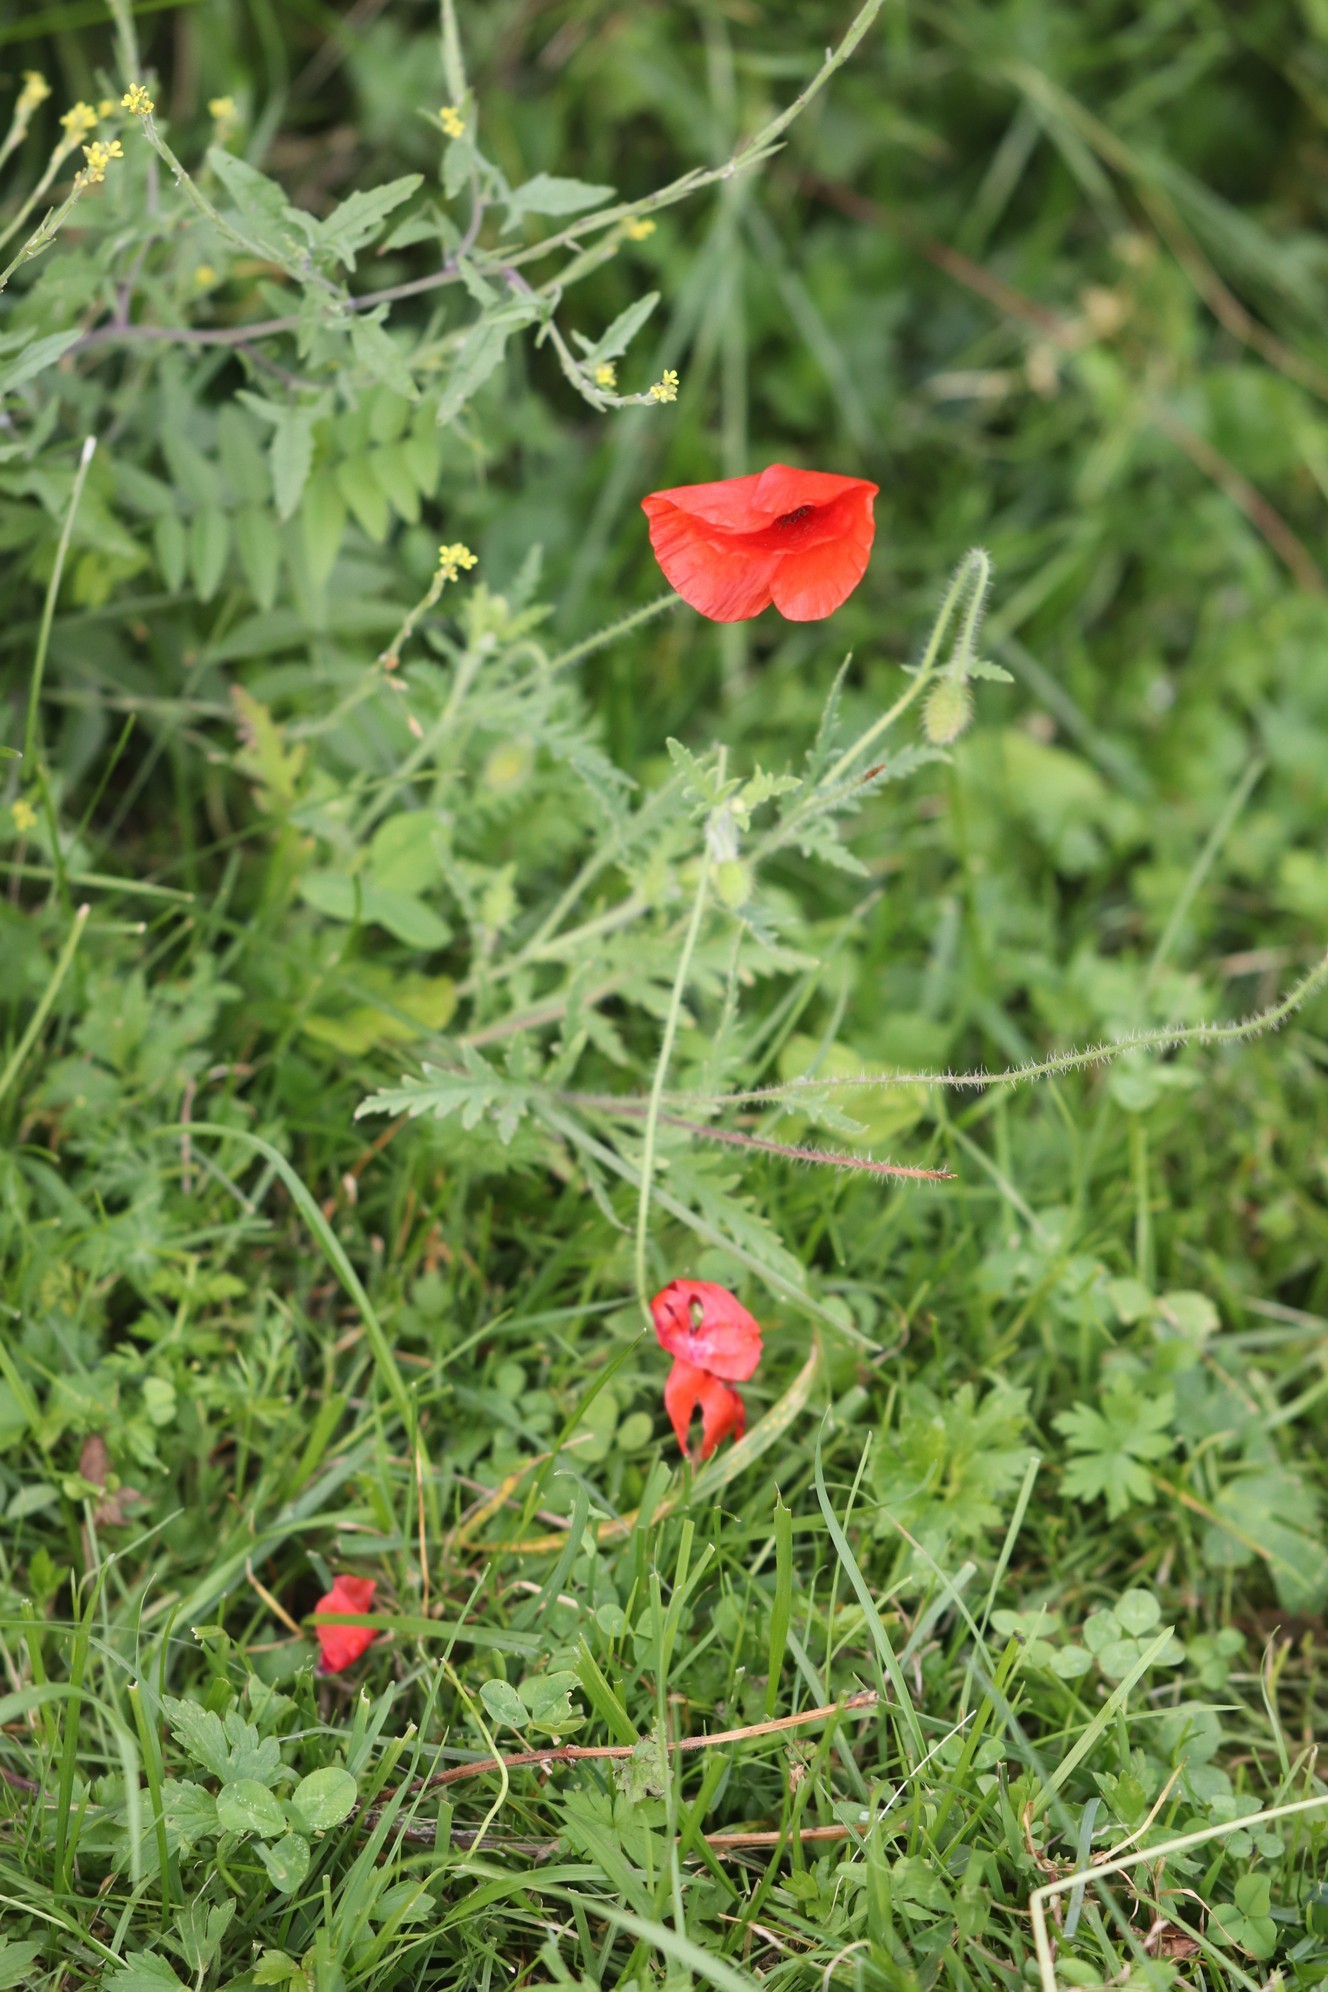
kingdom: Plantae
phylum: Tracheophyta
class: Magnoliopsida
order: Ranunculales
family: Papaveraceae
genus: Papaver
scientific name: Papaver rhoeas
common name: Corn poppy
